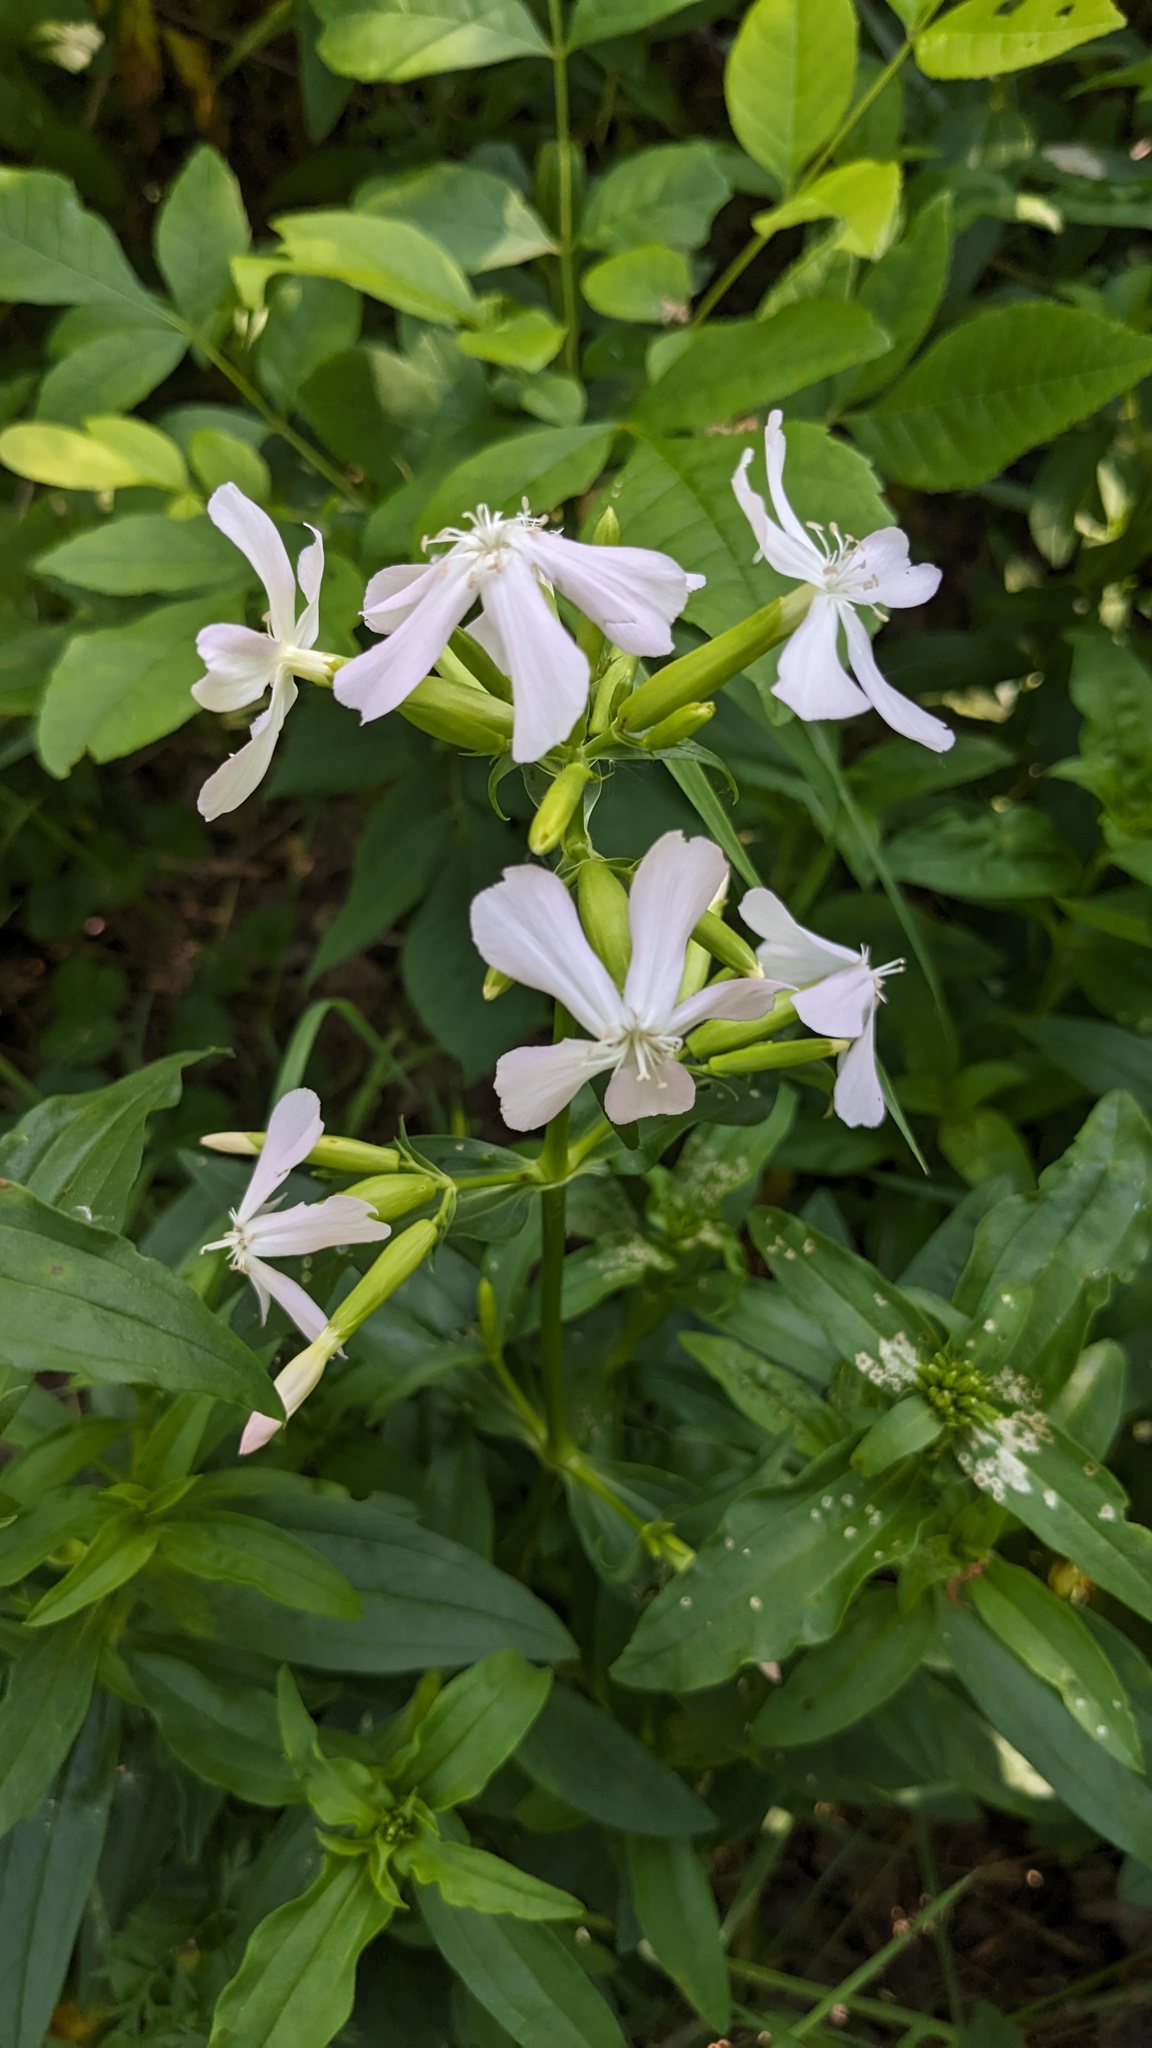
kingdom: Plantae
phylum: Tracheophyta
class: Magnoliopsida
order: Caryophyllales
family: Caryophyllaceae
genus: Saponaria
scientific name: Saponaria officinalis
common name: Soapwort
